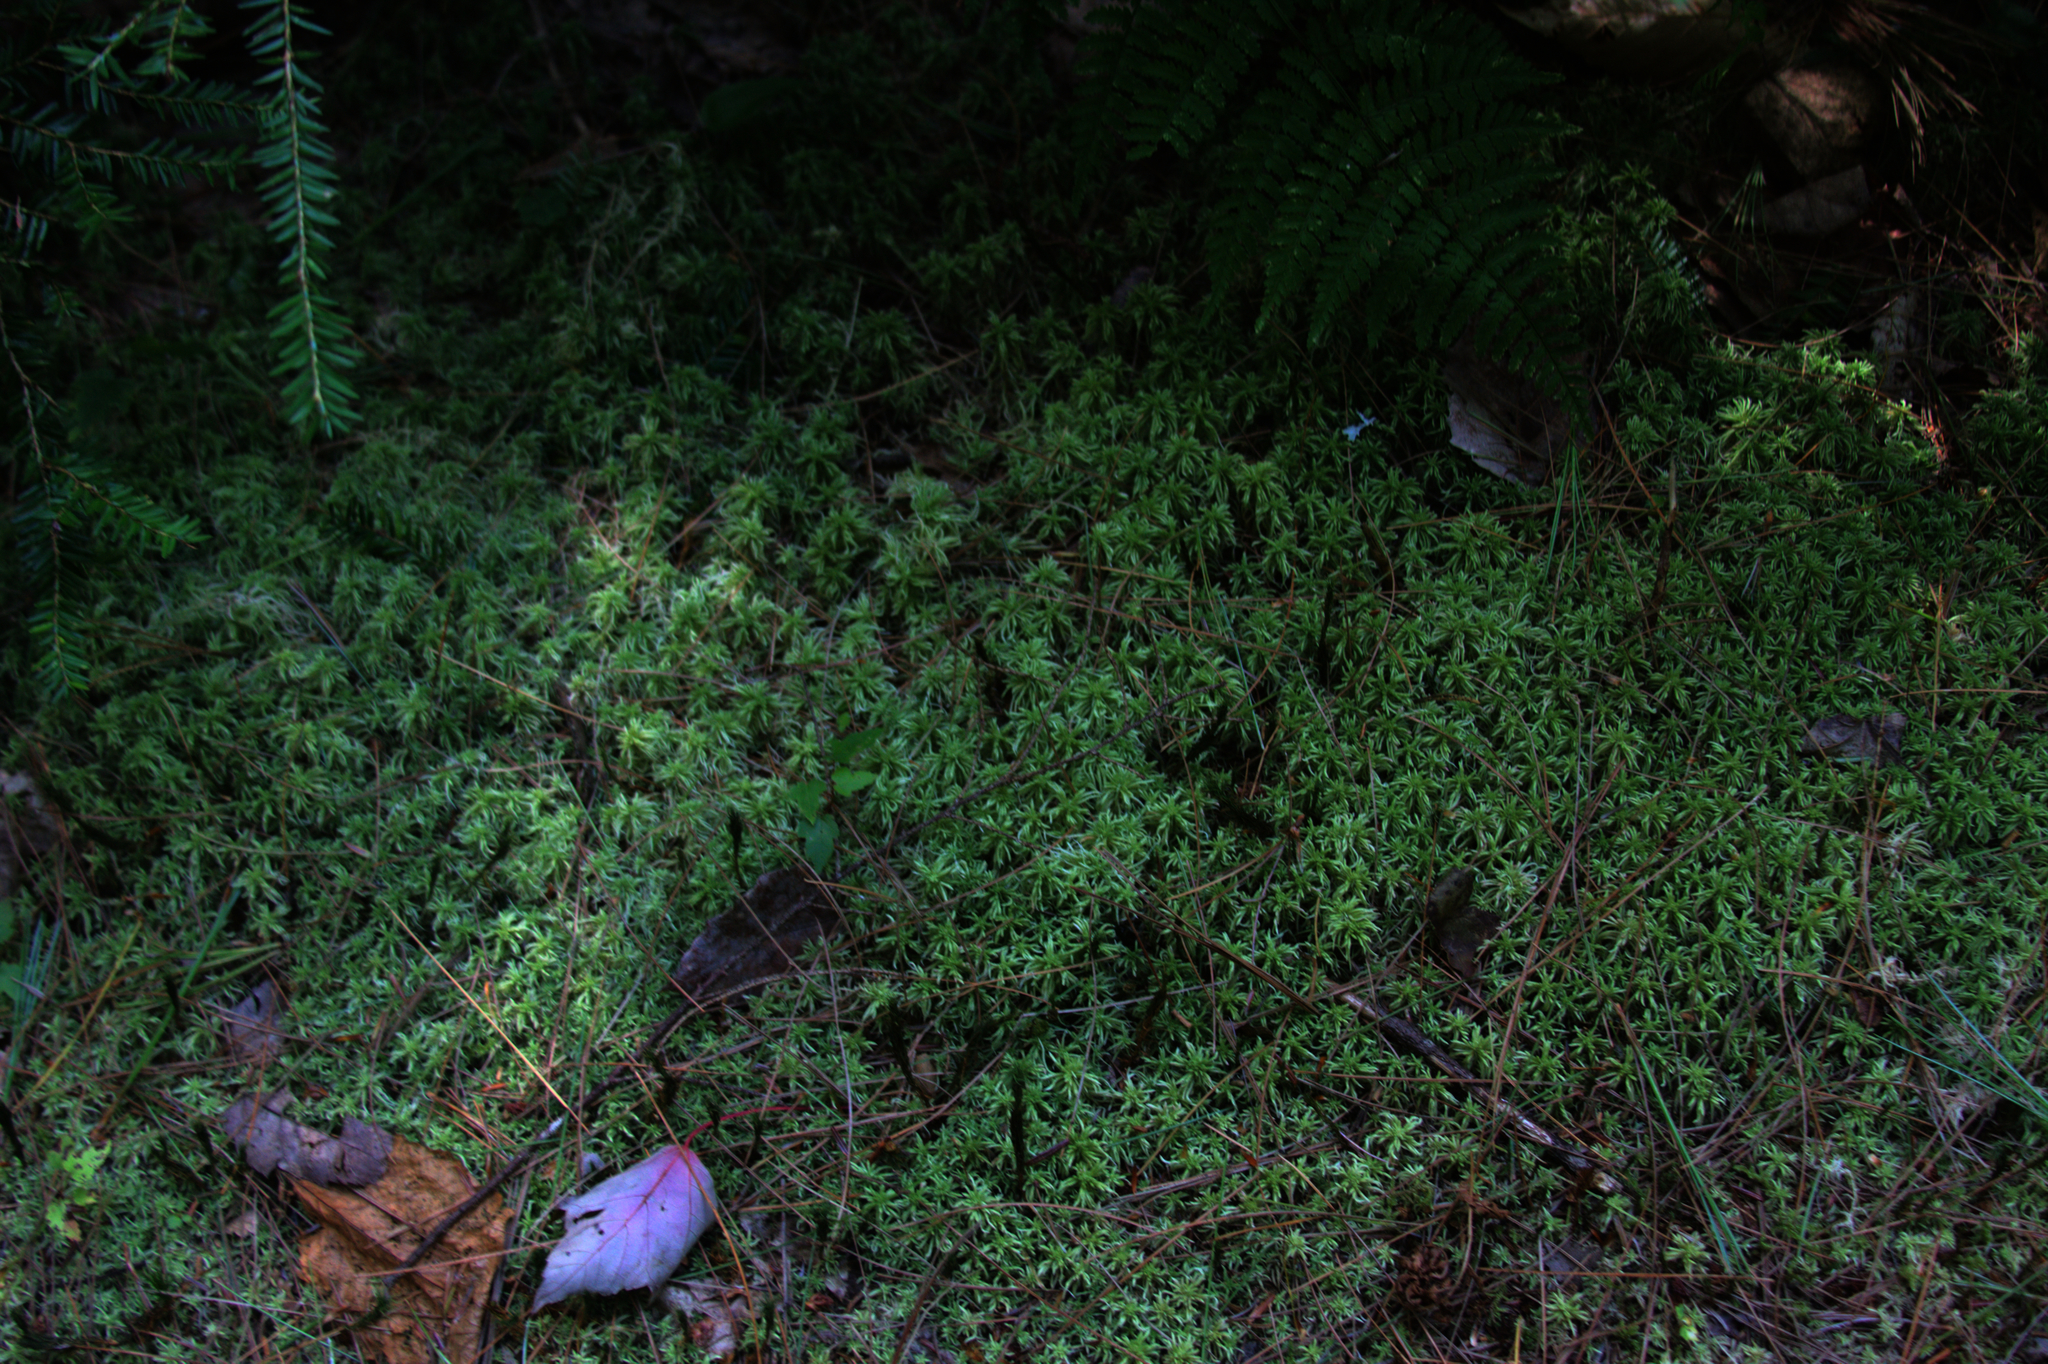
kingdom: Plantae
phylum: Tracheophyta
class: Pinopsida
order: Pinales
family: Pinaceae
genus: Tsuga
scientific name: Tsuga canadensis
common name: Eastern hemlock
